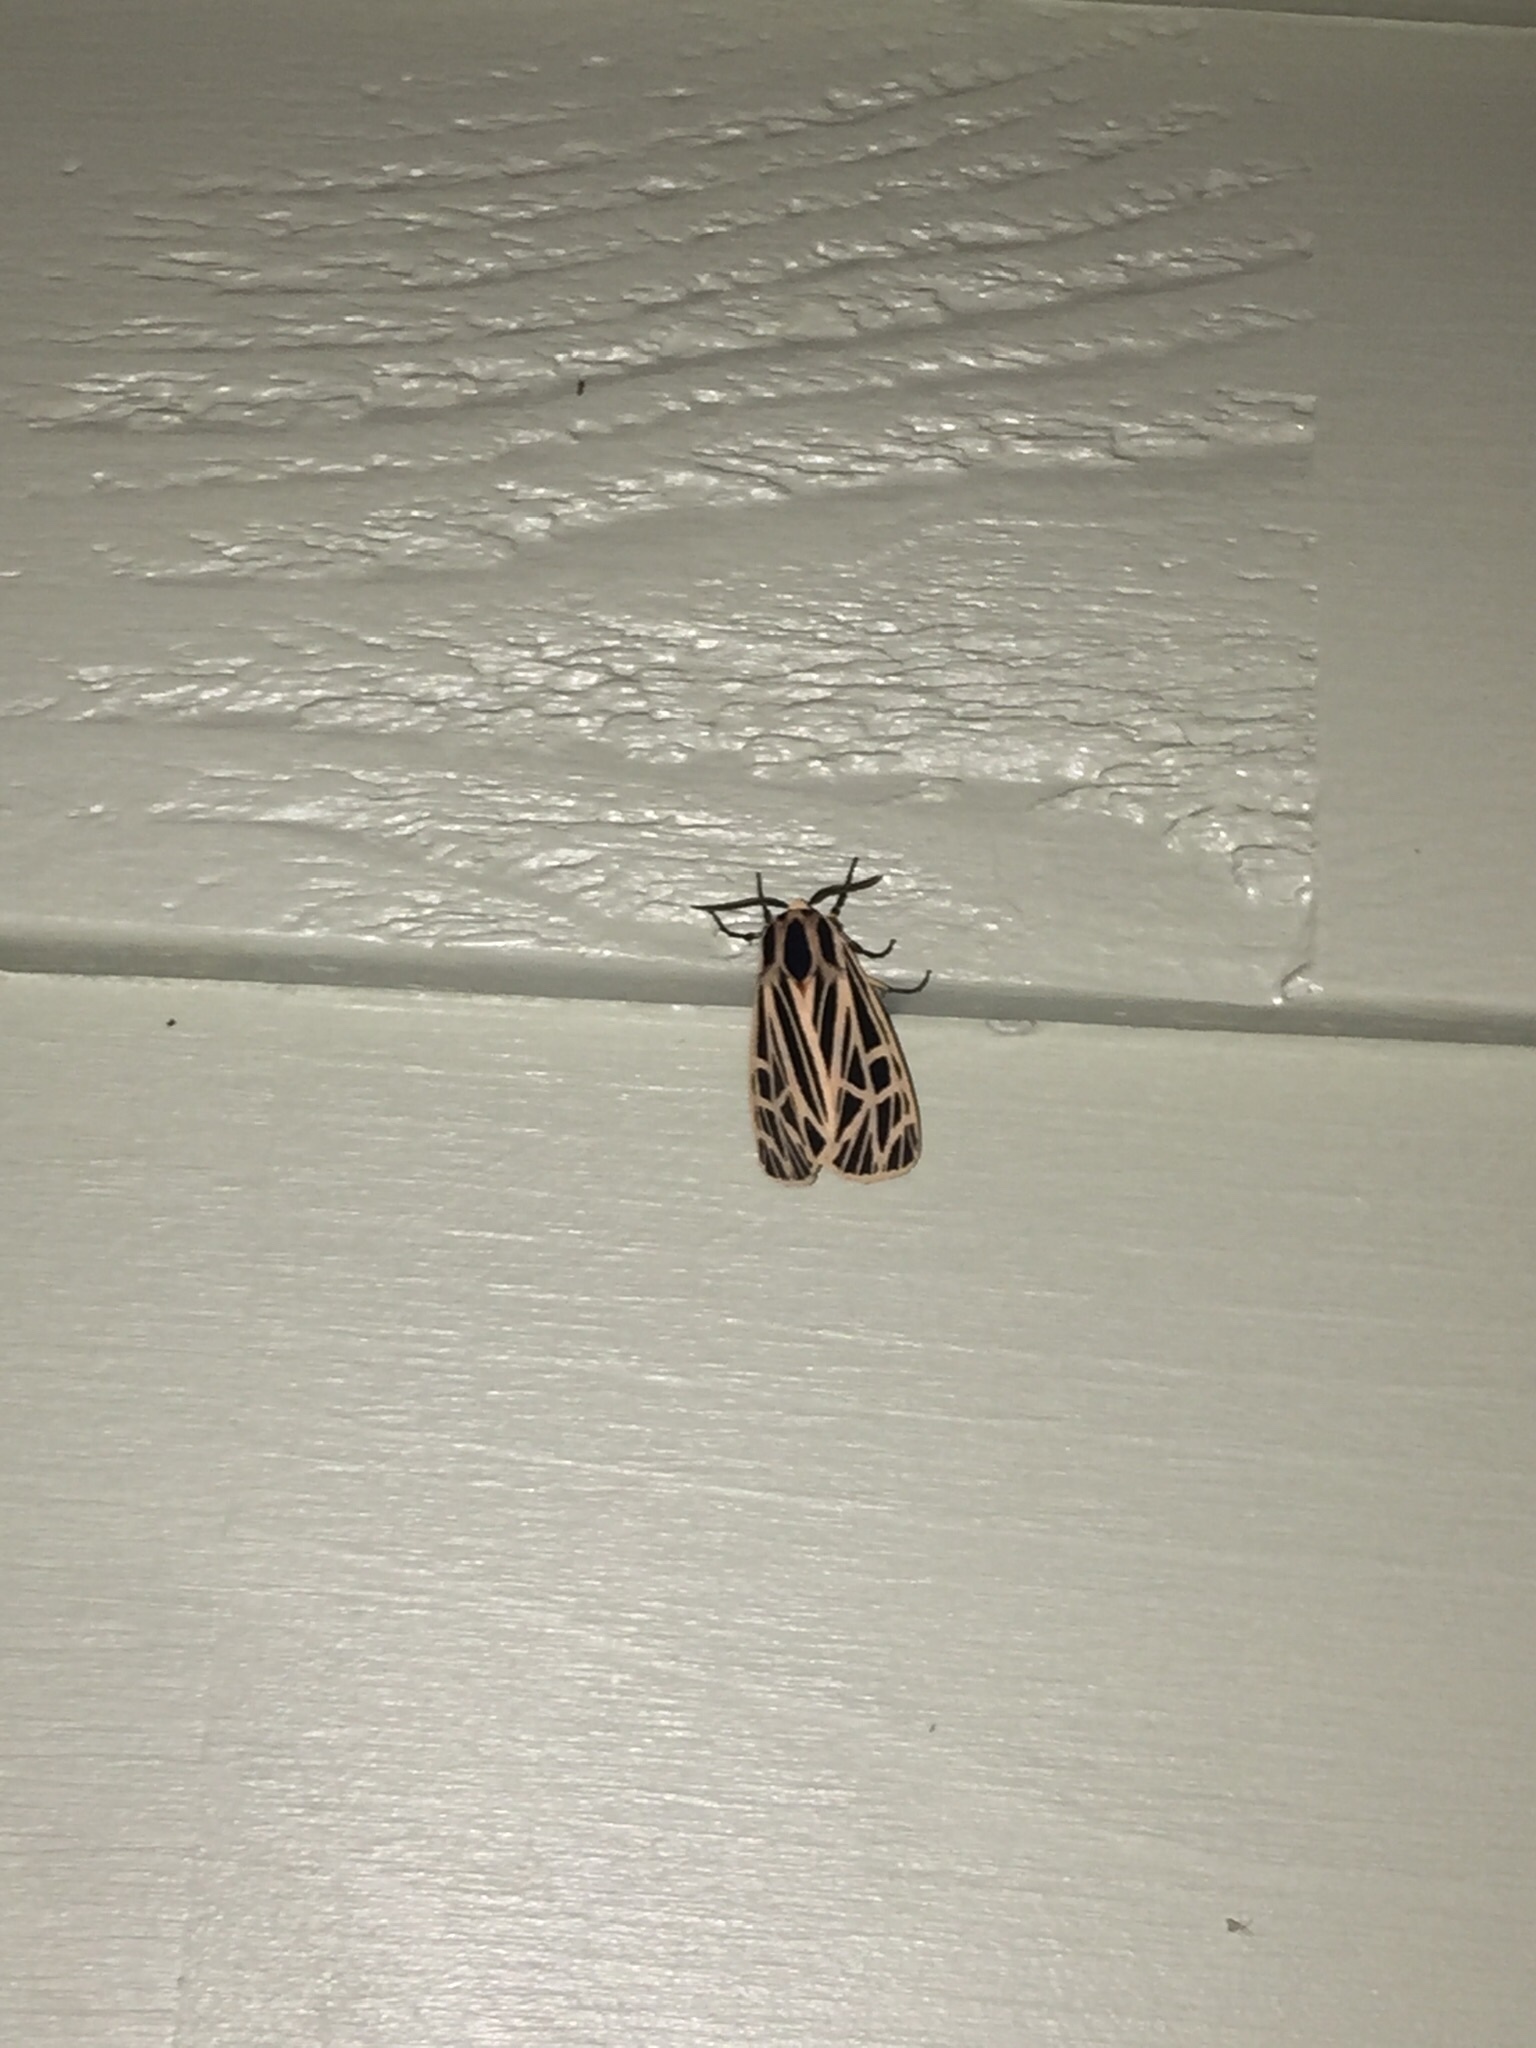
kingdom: Animalia
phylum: Arthropoda
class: Insecta
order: Lepidoptera
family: Erebidae
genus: Grammia
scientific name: Grammia virgo
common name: Virgin tiger moth
